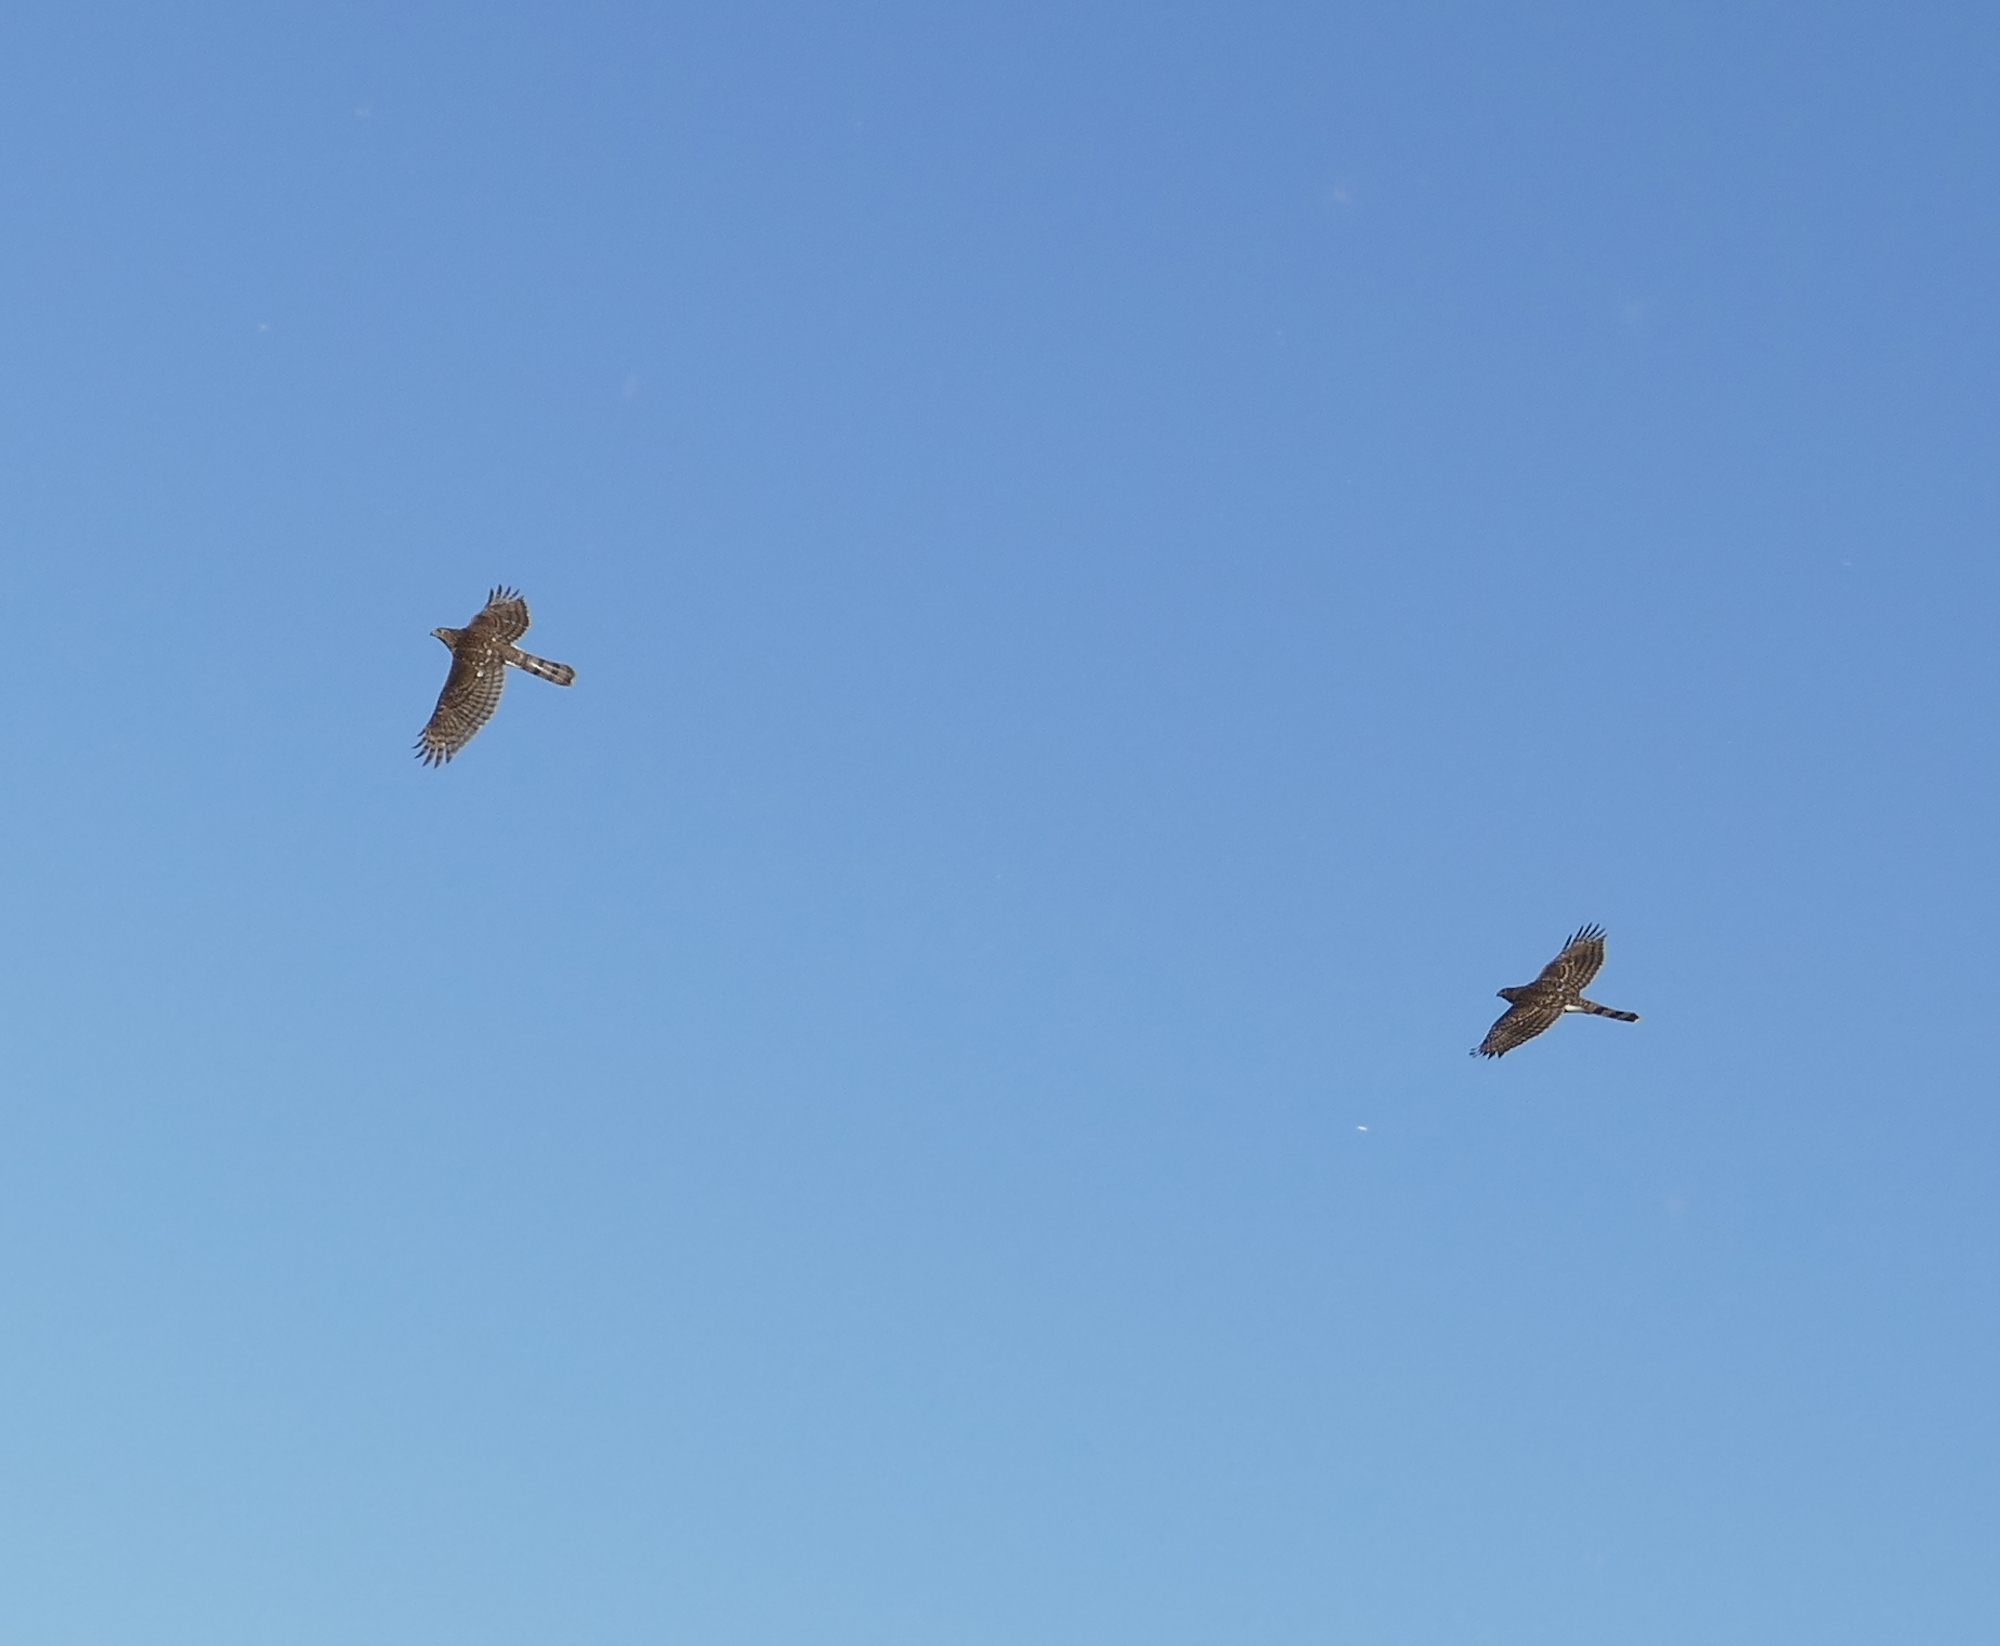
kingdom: Animalia
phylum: Chordata
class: Aves
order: Accipitriformes
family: Accipitridae
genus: Accipiter
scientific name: Accipiter cooperii
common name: Cooper's hawk
